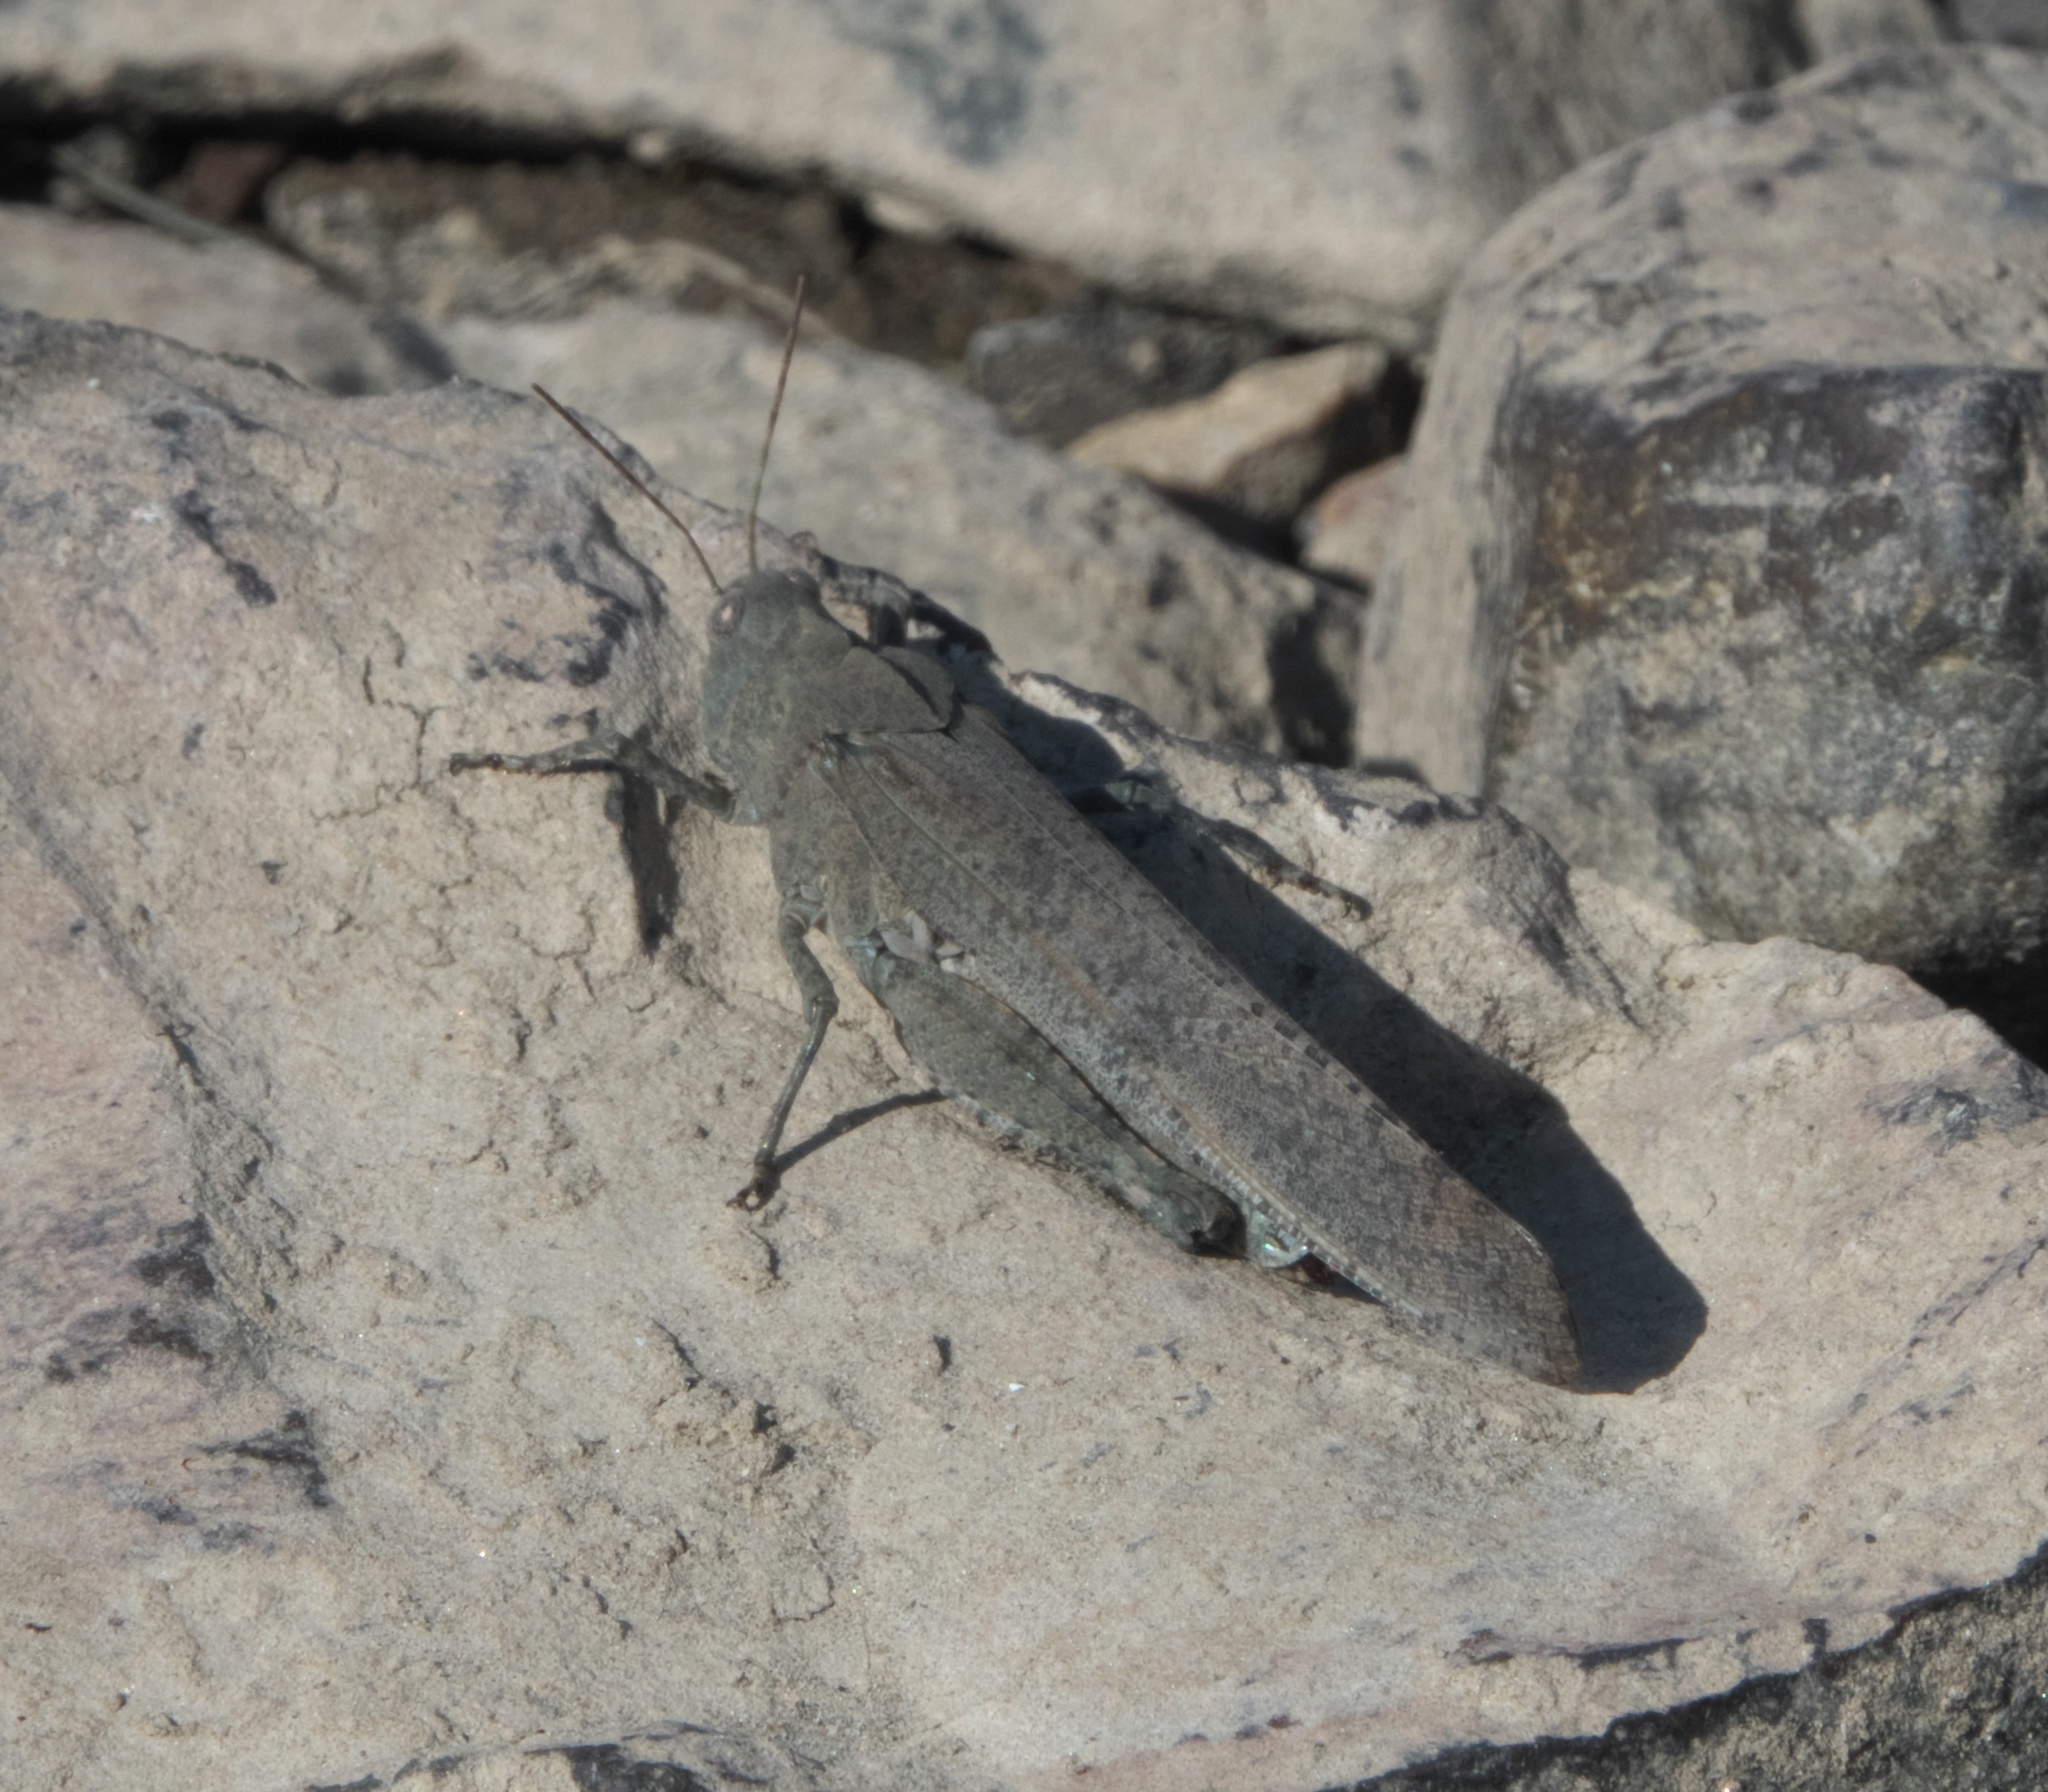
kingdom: Animalia
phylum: Arthropoda
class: Insecta
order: Orthoptera
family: Acrididae
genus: Dissosteira
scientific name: Dissosteira carolina
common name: Carolina grasshopper
